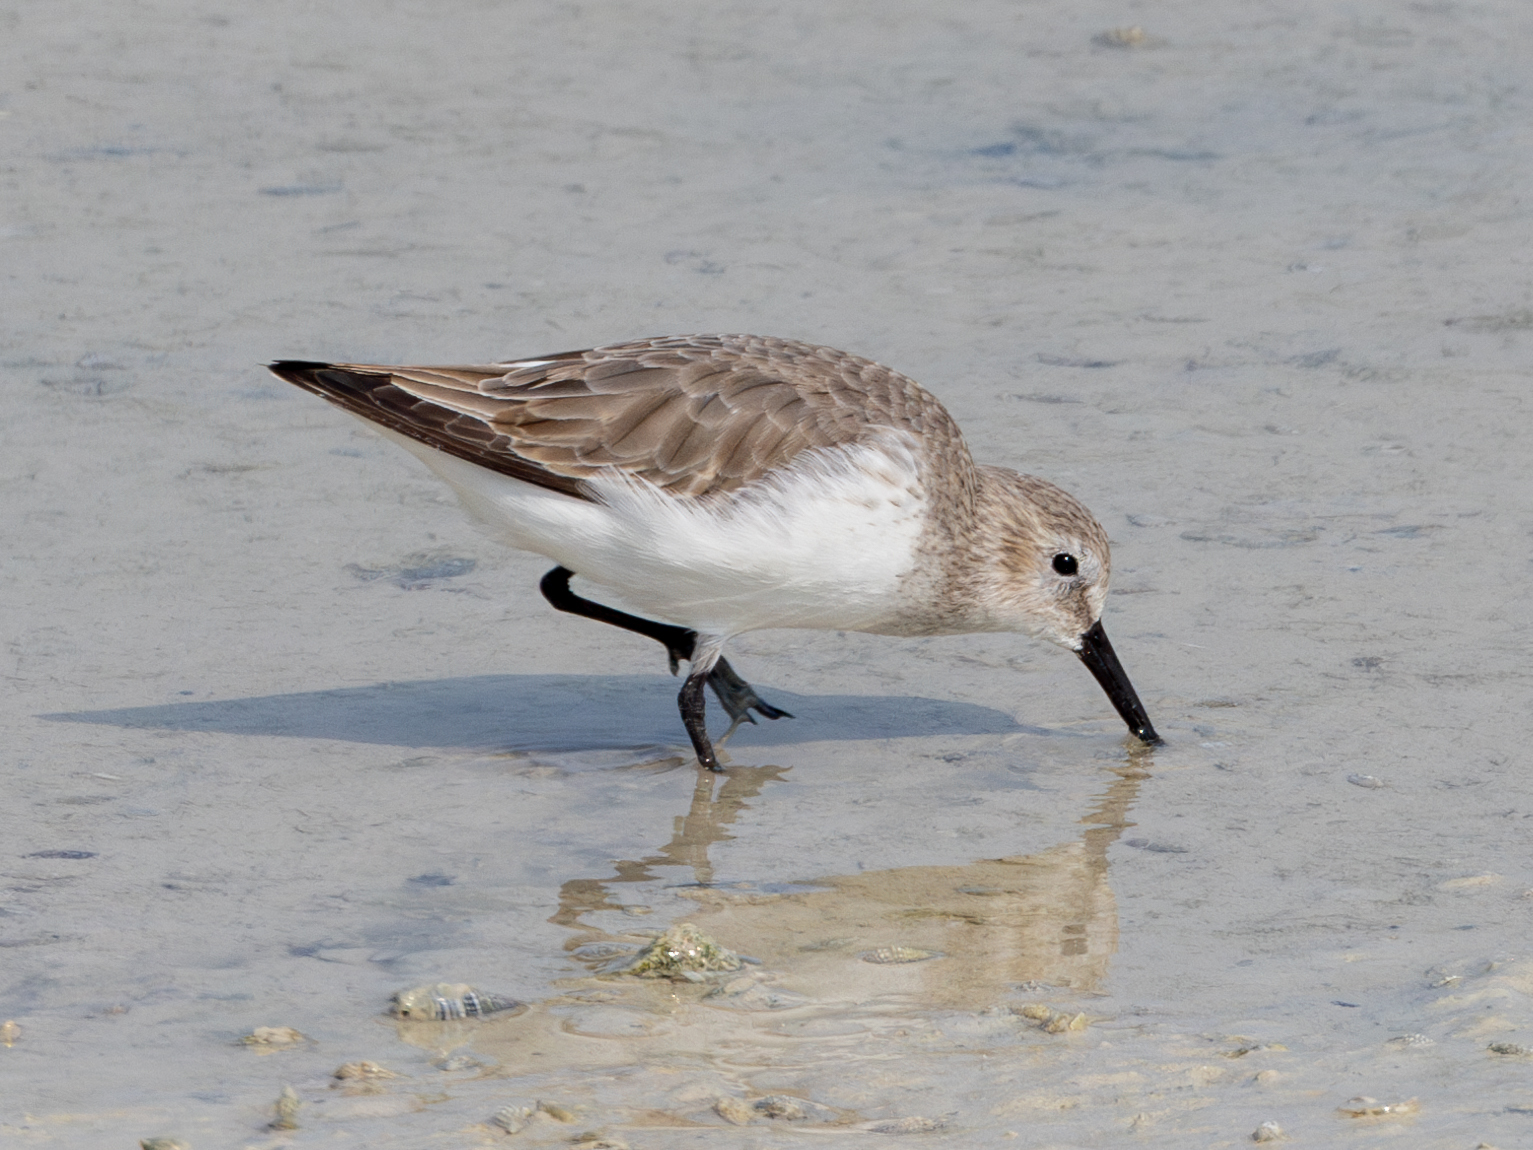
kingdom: Animalia
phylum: Chordata
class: Aves
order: Charadriiformes
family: Scolopacidae
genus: Calidris
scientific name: Calidris alpina
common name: Dunlin
